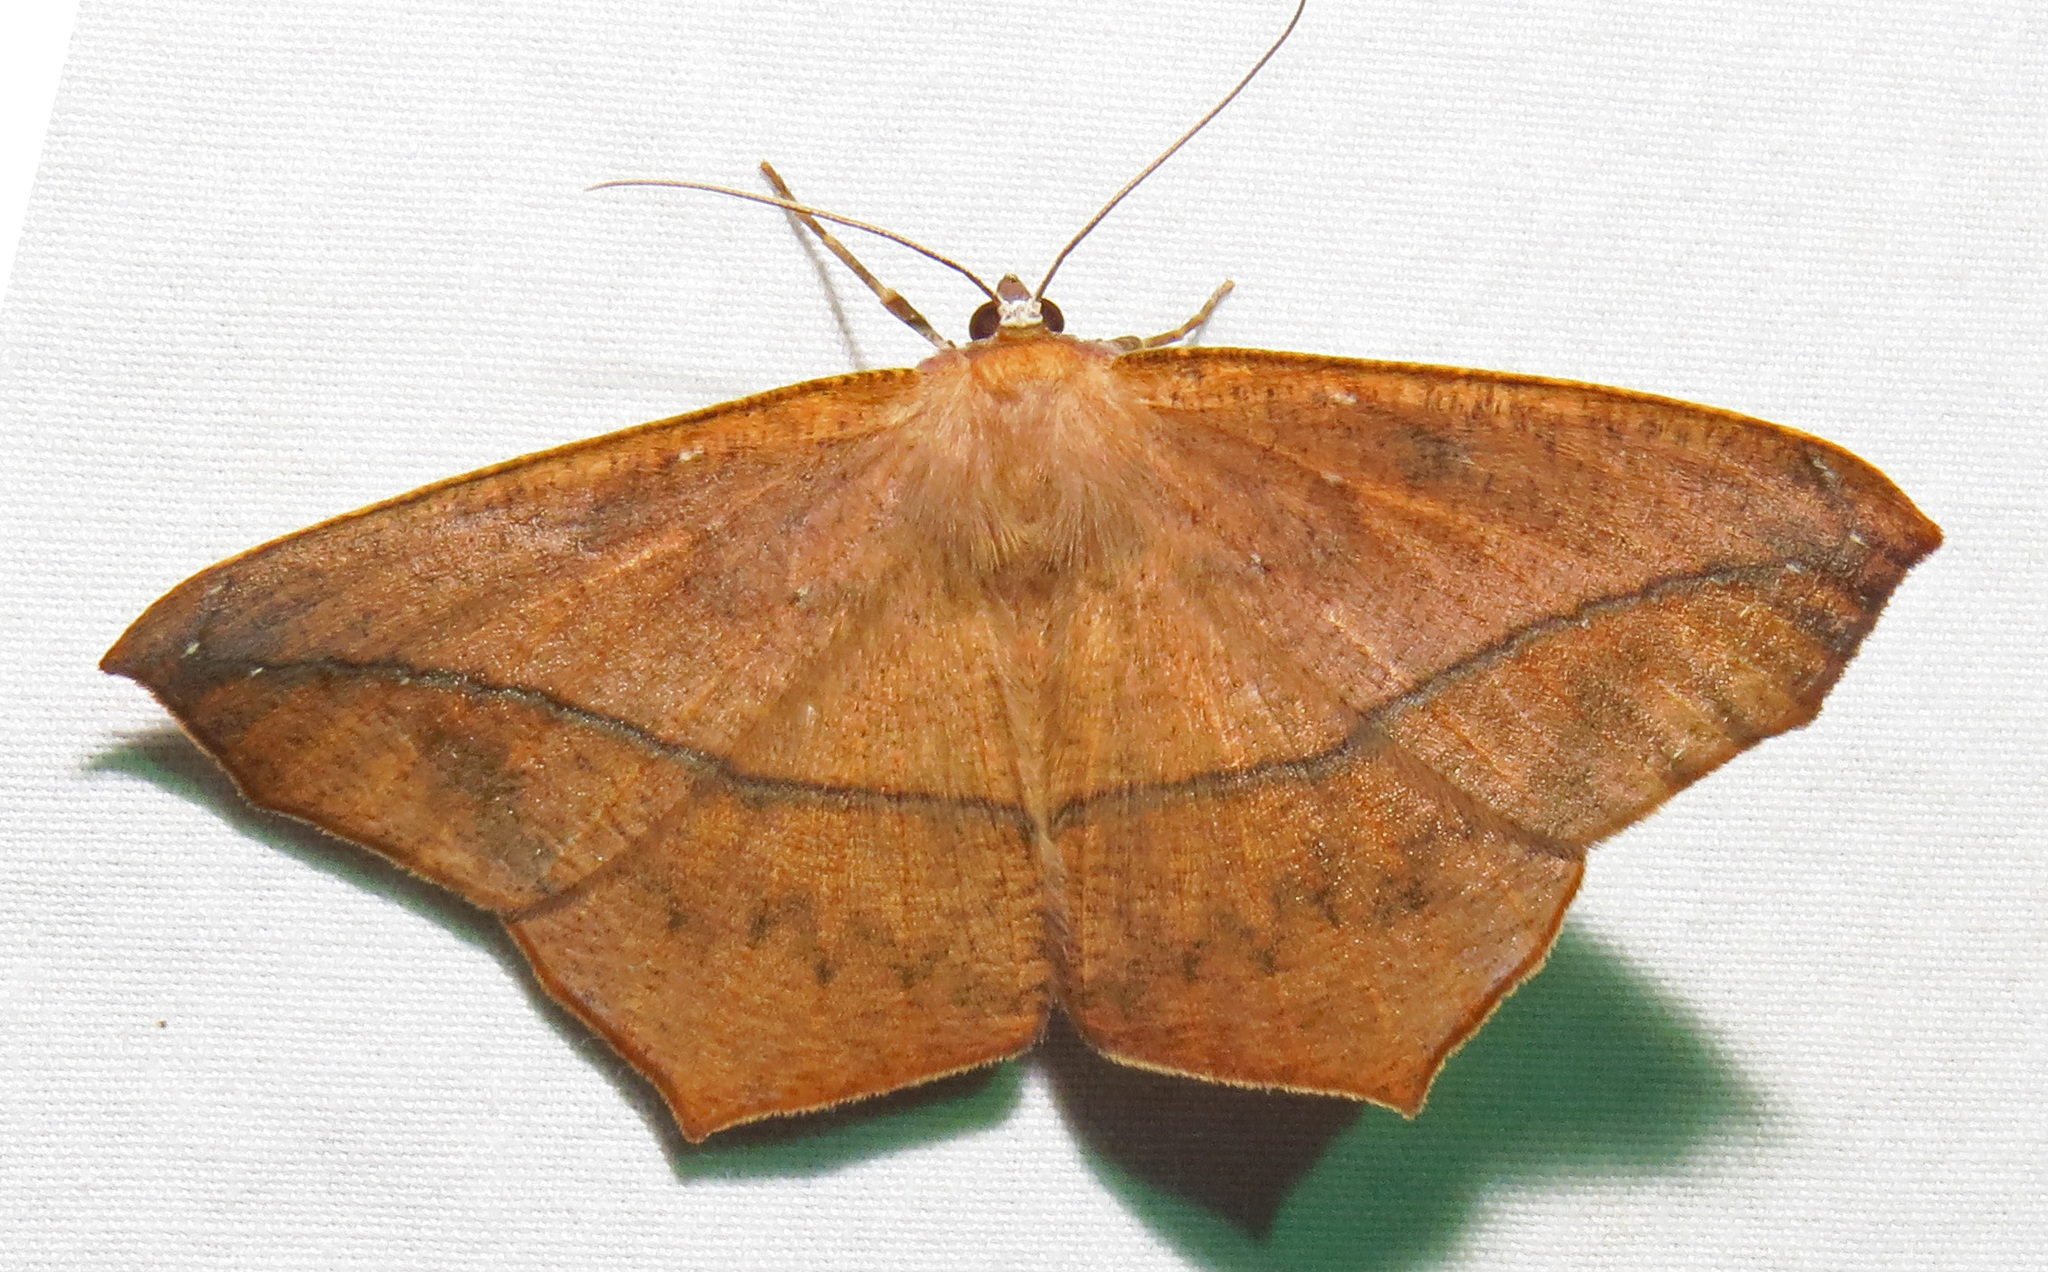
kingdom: Animalia
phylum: Arthropoda
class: Insecta
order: Lepidoptera
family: Geometridae
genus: Prochoerodes
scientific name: Prochoerodes lineola
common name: Large maple spanworm
